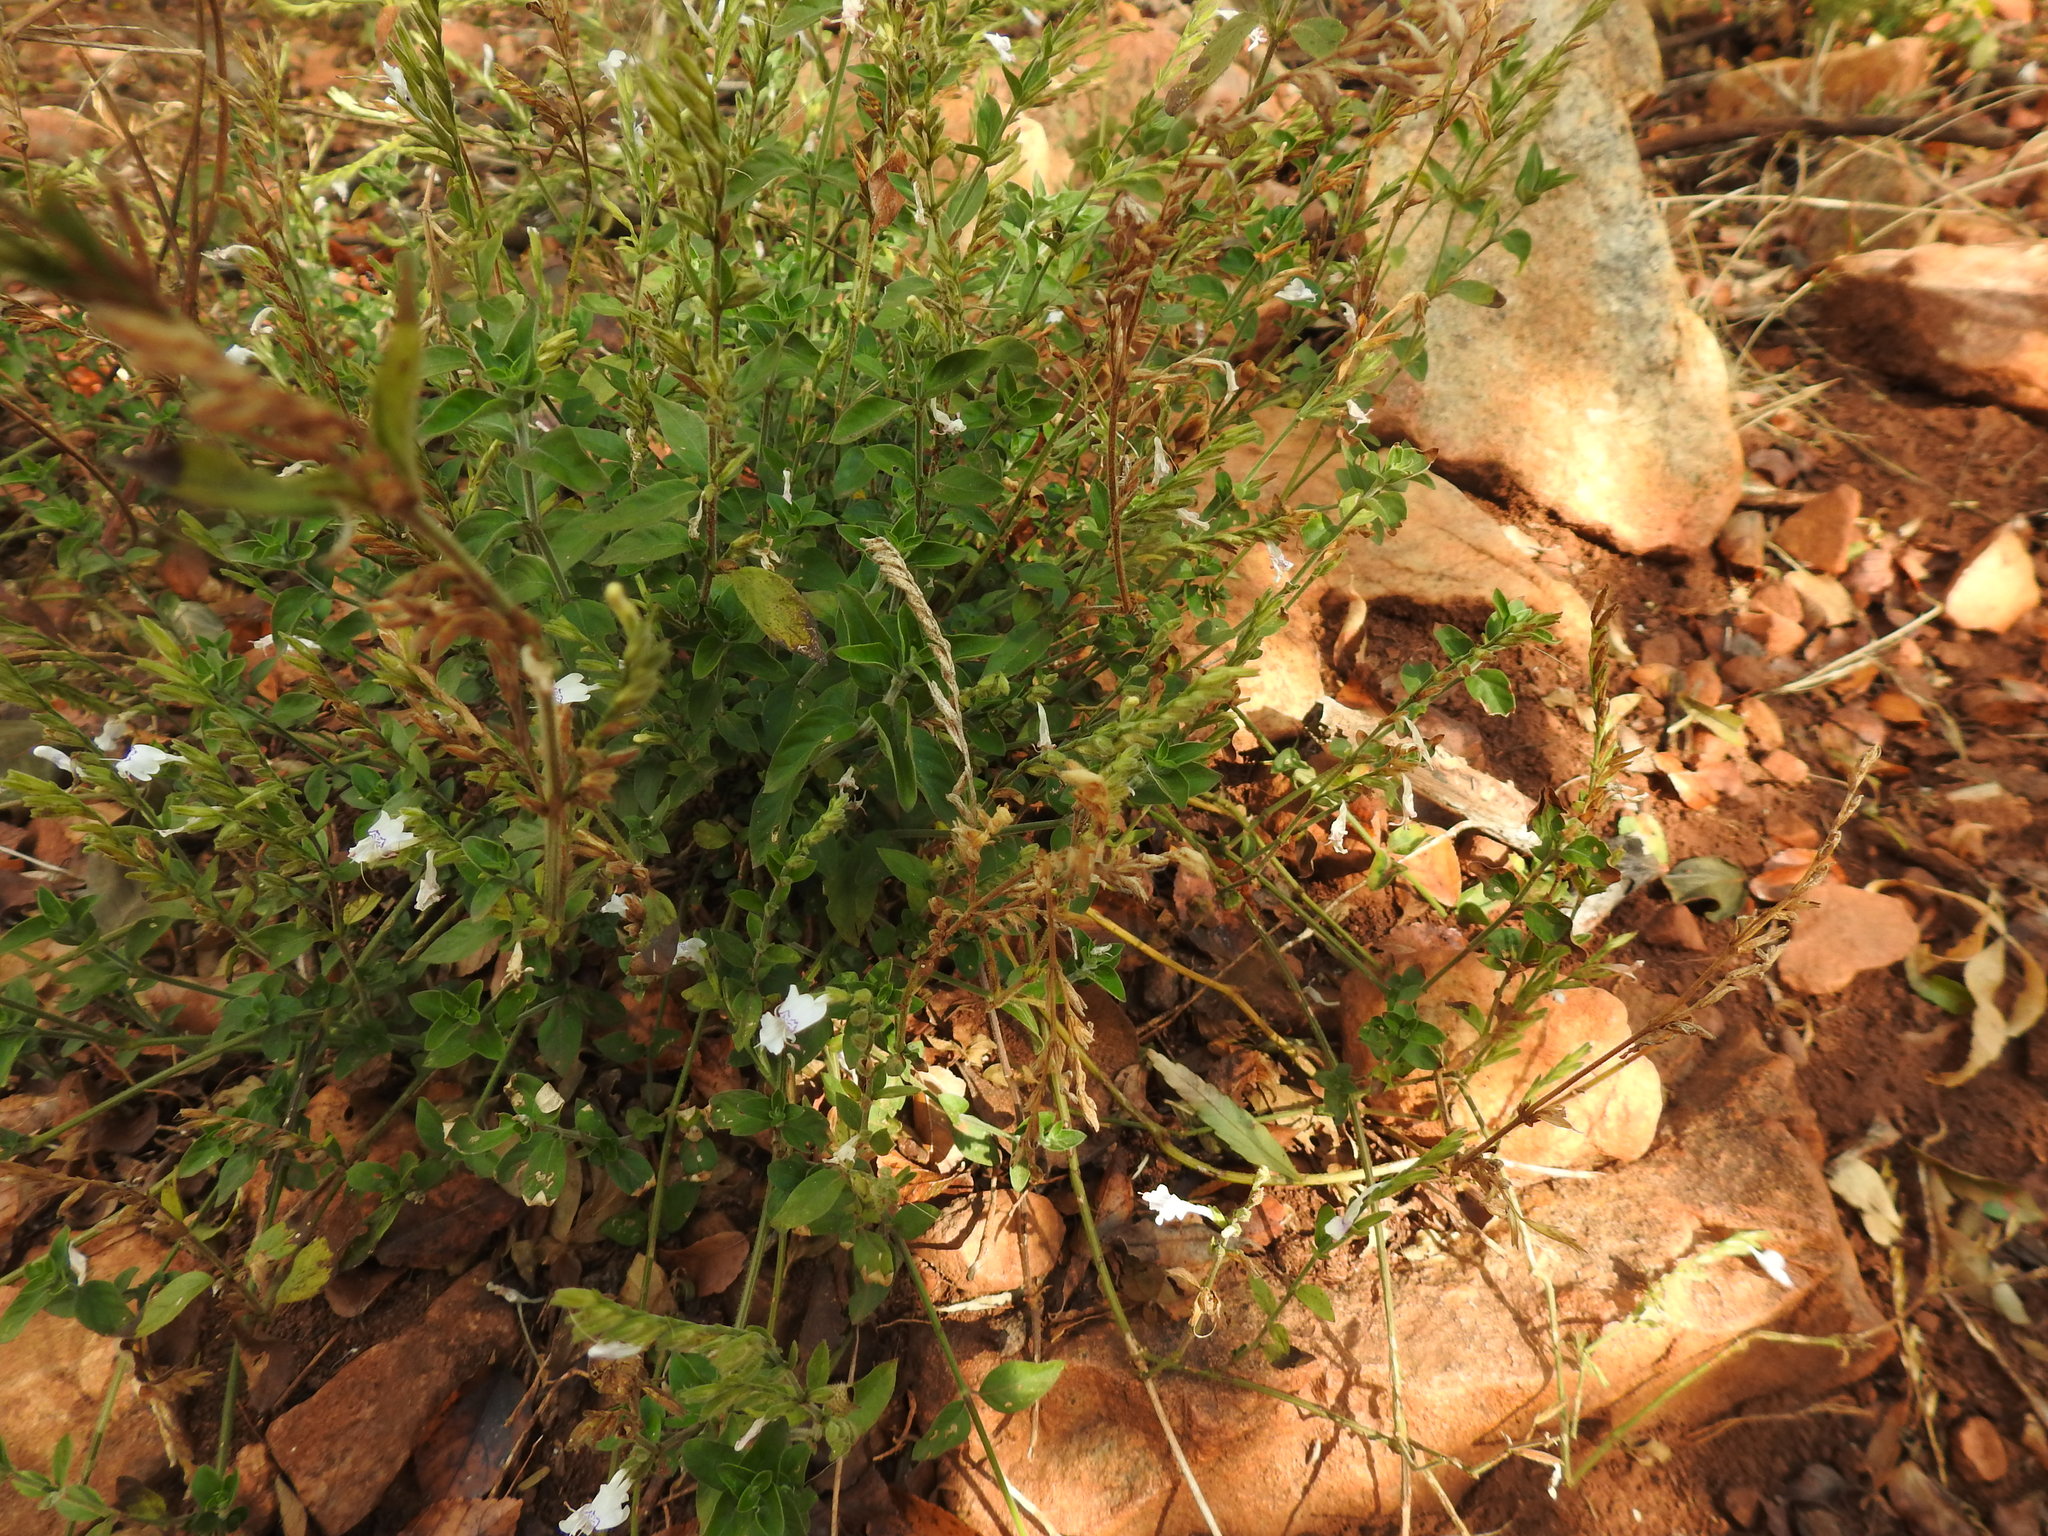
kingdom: Plantae
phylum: Tracheophyta
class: Magnoliopsida
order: Lamiales
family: Acanthaceae
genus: Hypoestes
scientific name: Hypoestes forskaolii
